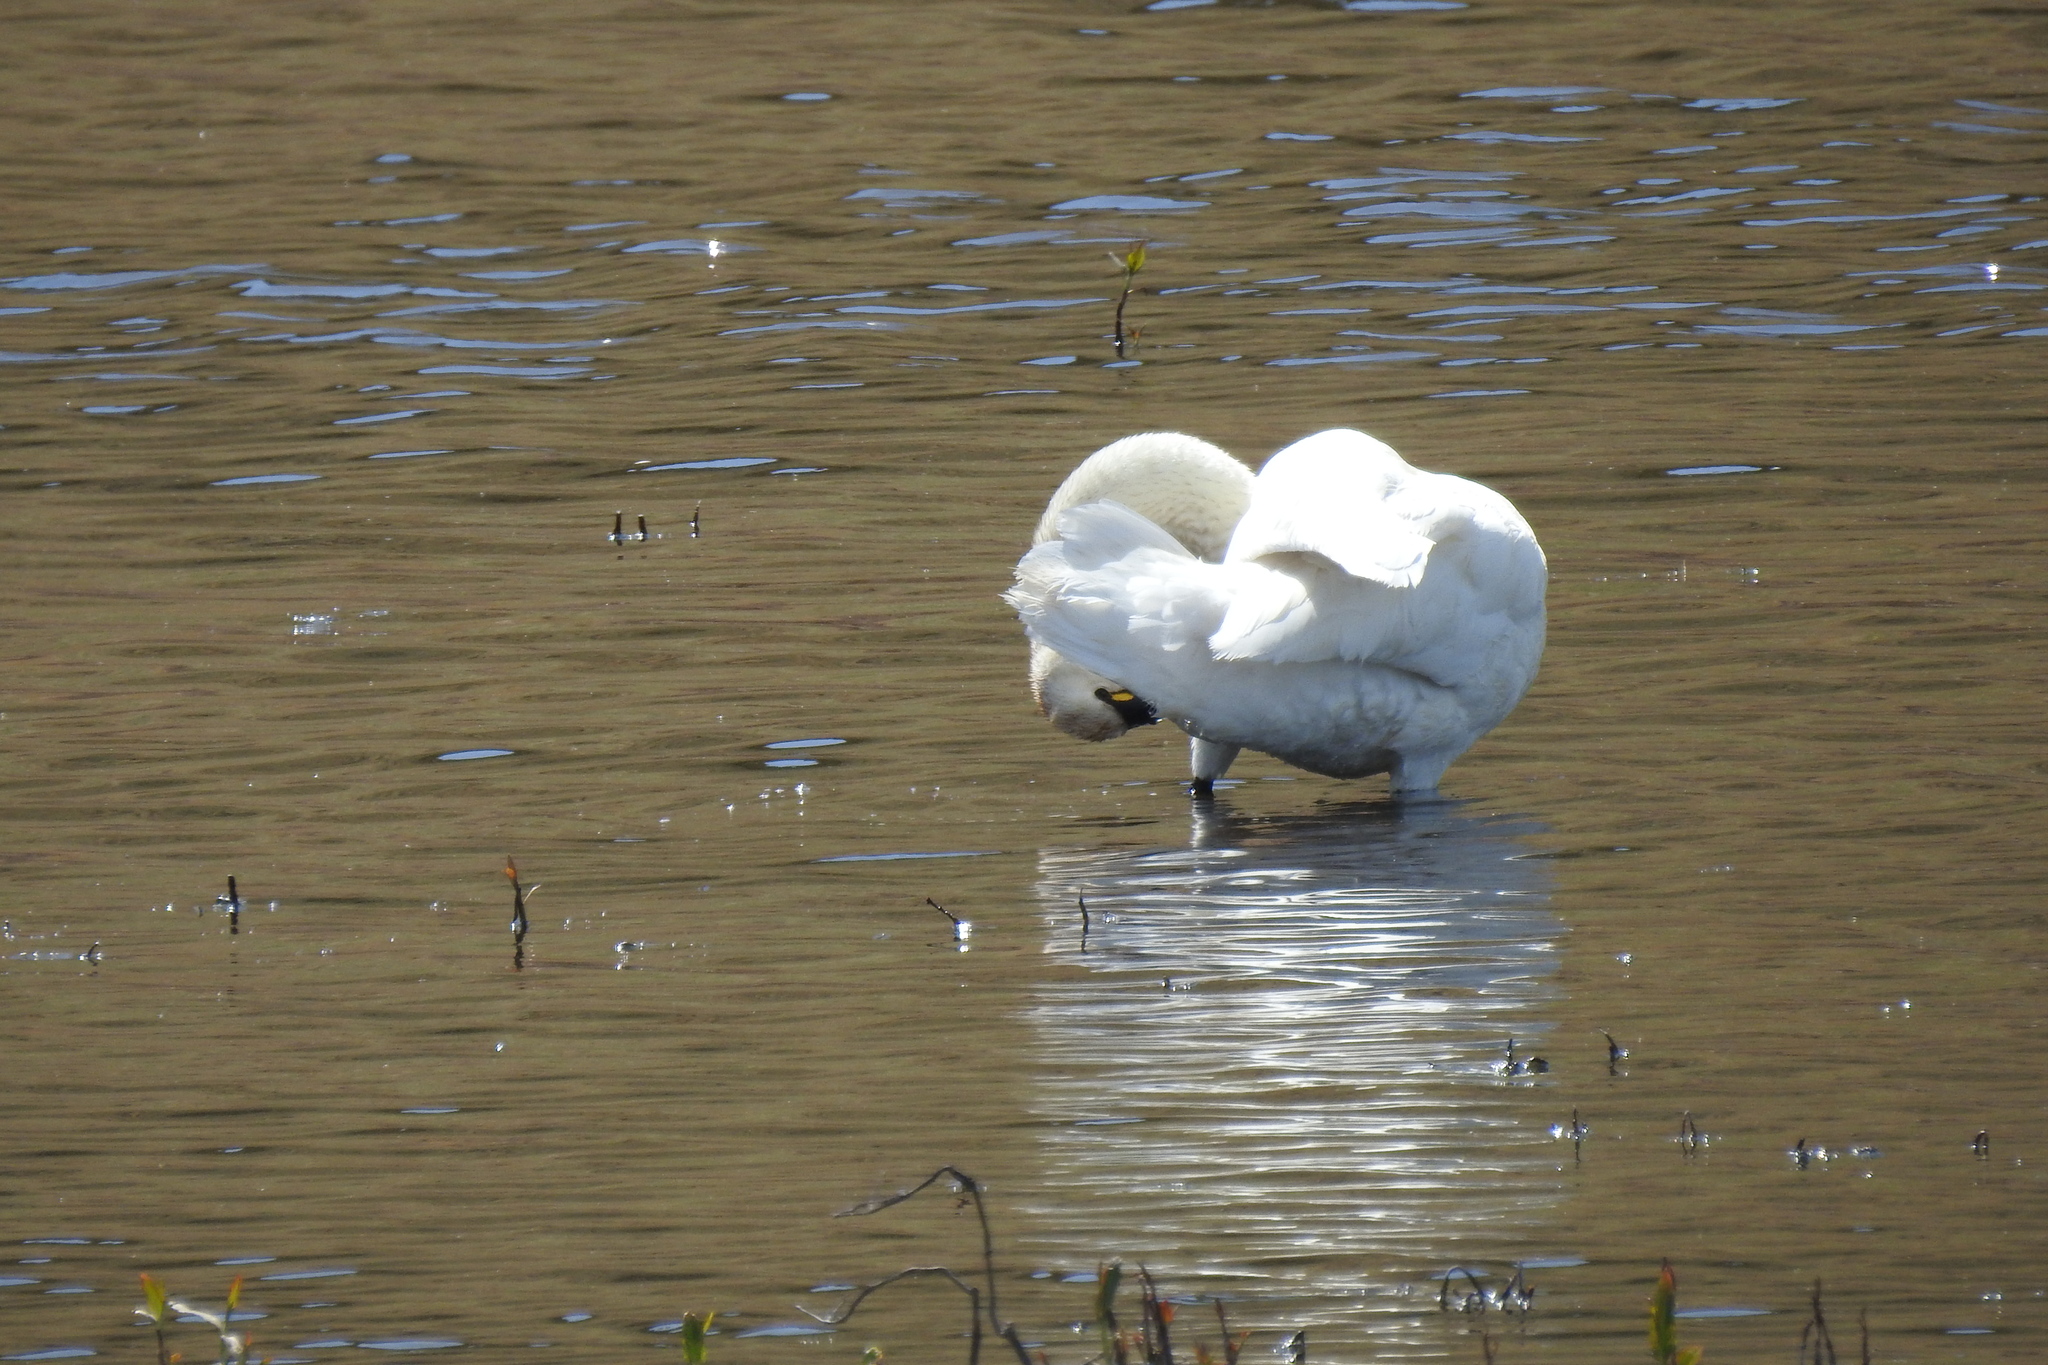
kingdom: Animalia
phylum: Chordata
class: Aves
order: Anseriformes
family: Anatidae
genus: Cygnus
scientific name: Cygnus columbianus
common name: Tundra swan
